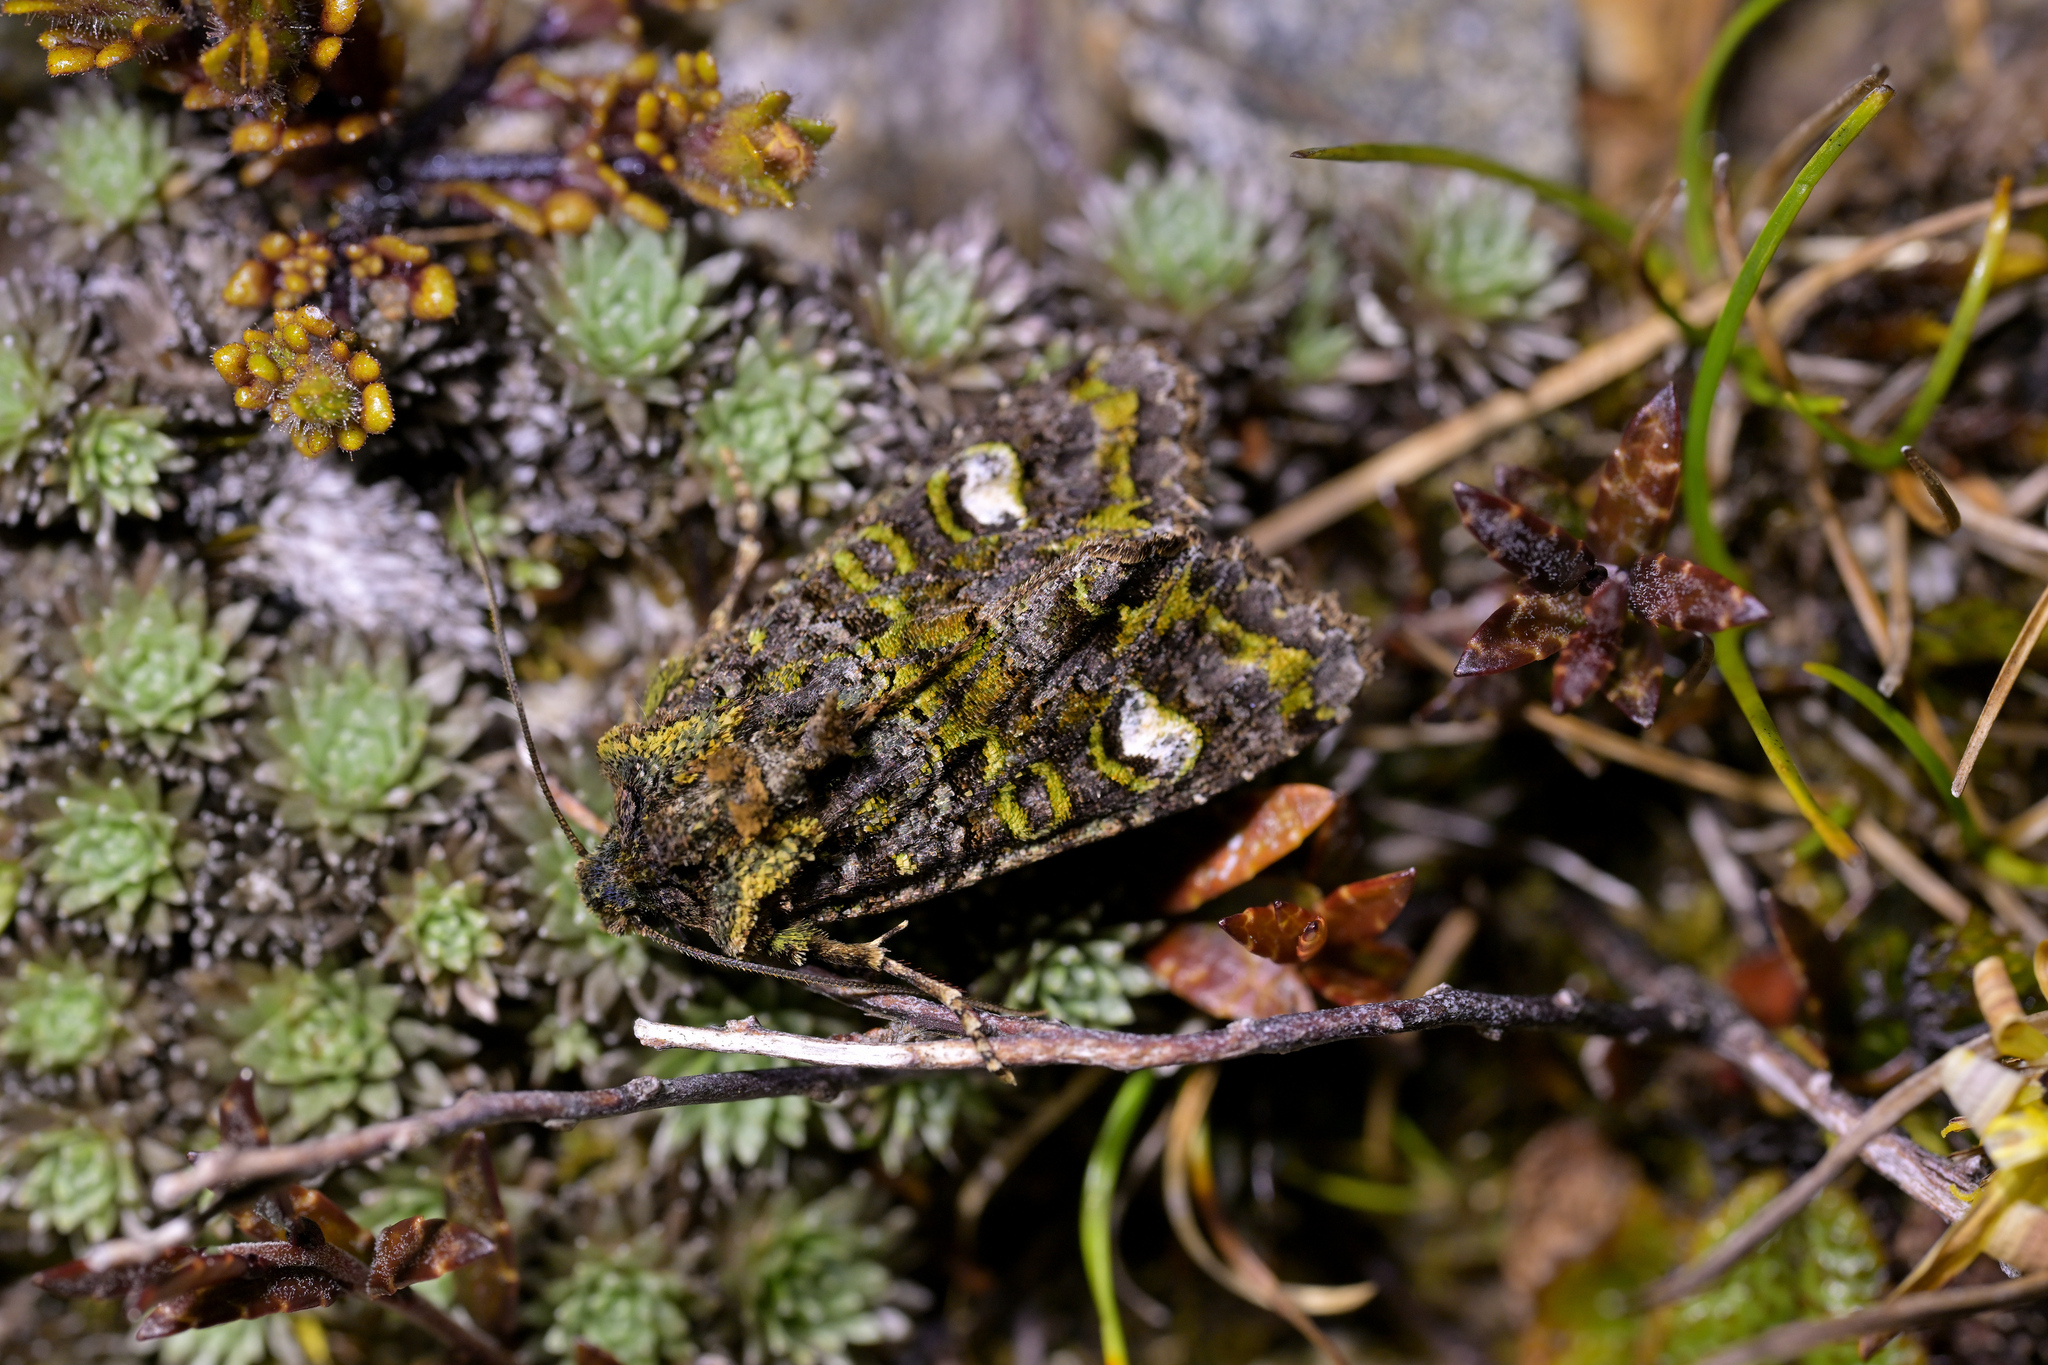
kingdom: Animalia
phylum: Arthropoda
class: Insecta
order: Lepidoptera
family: Noctuidae
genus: Ichneutica
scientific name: Ichneutica
